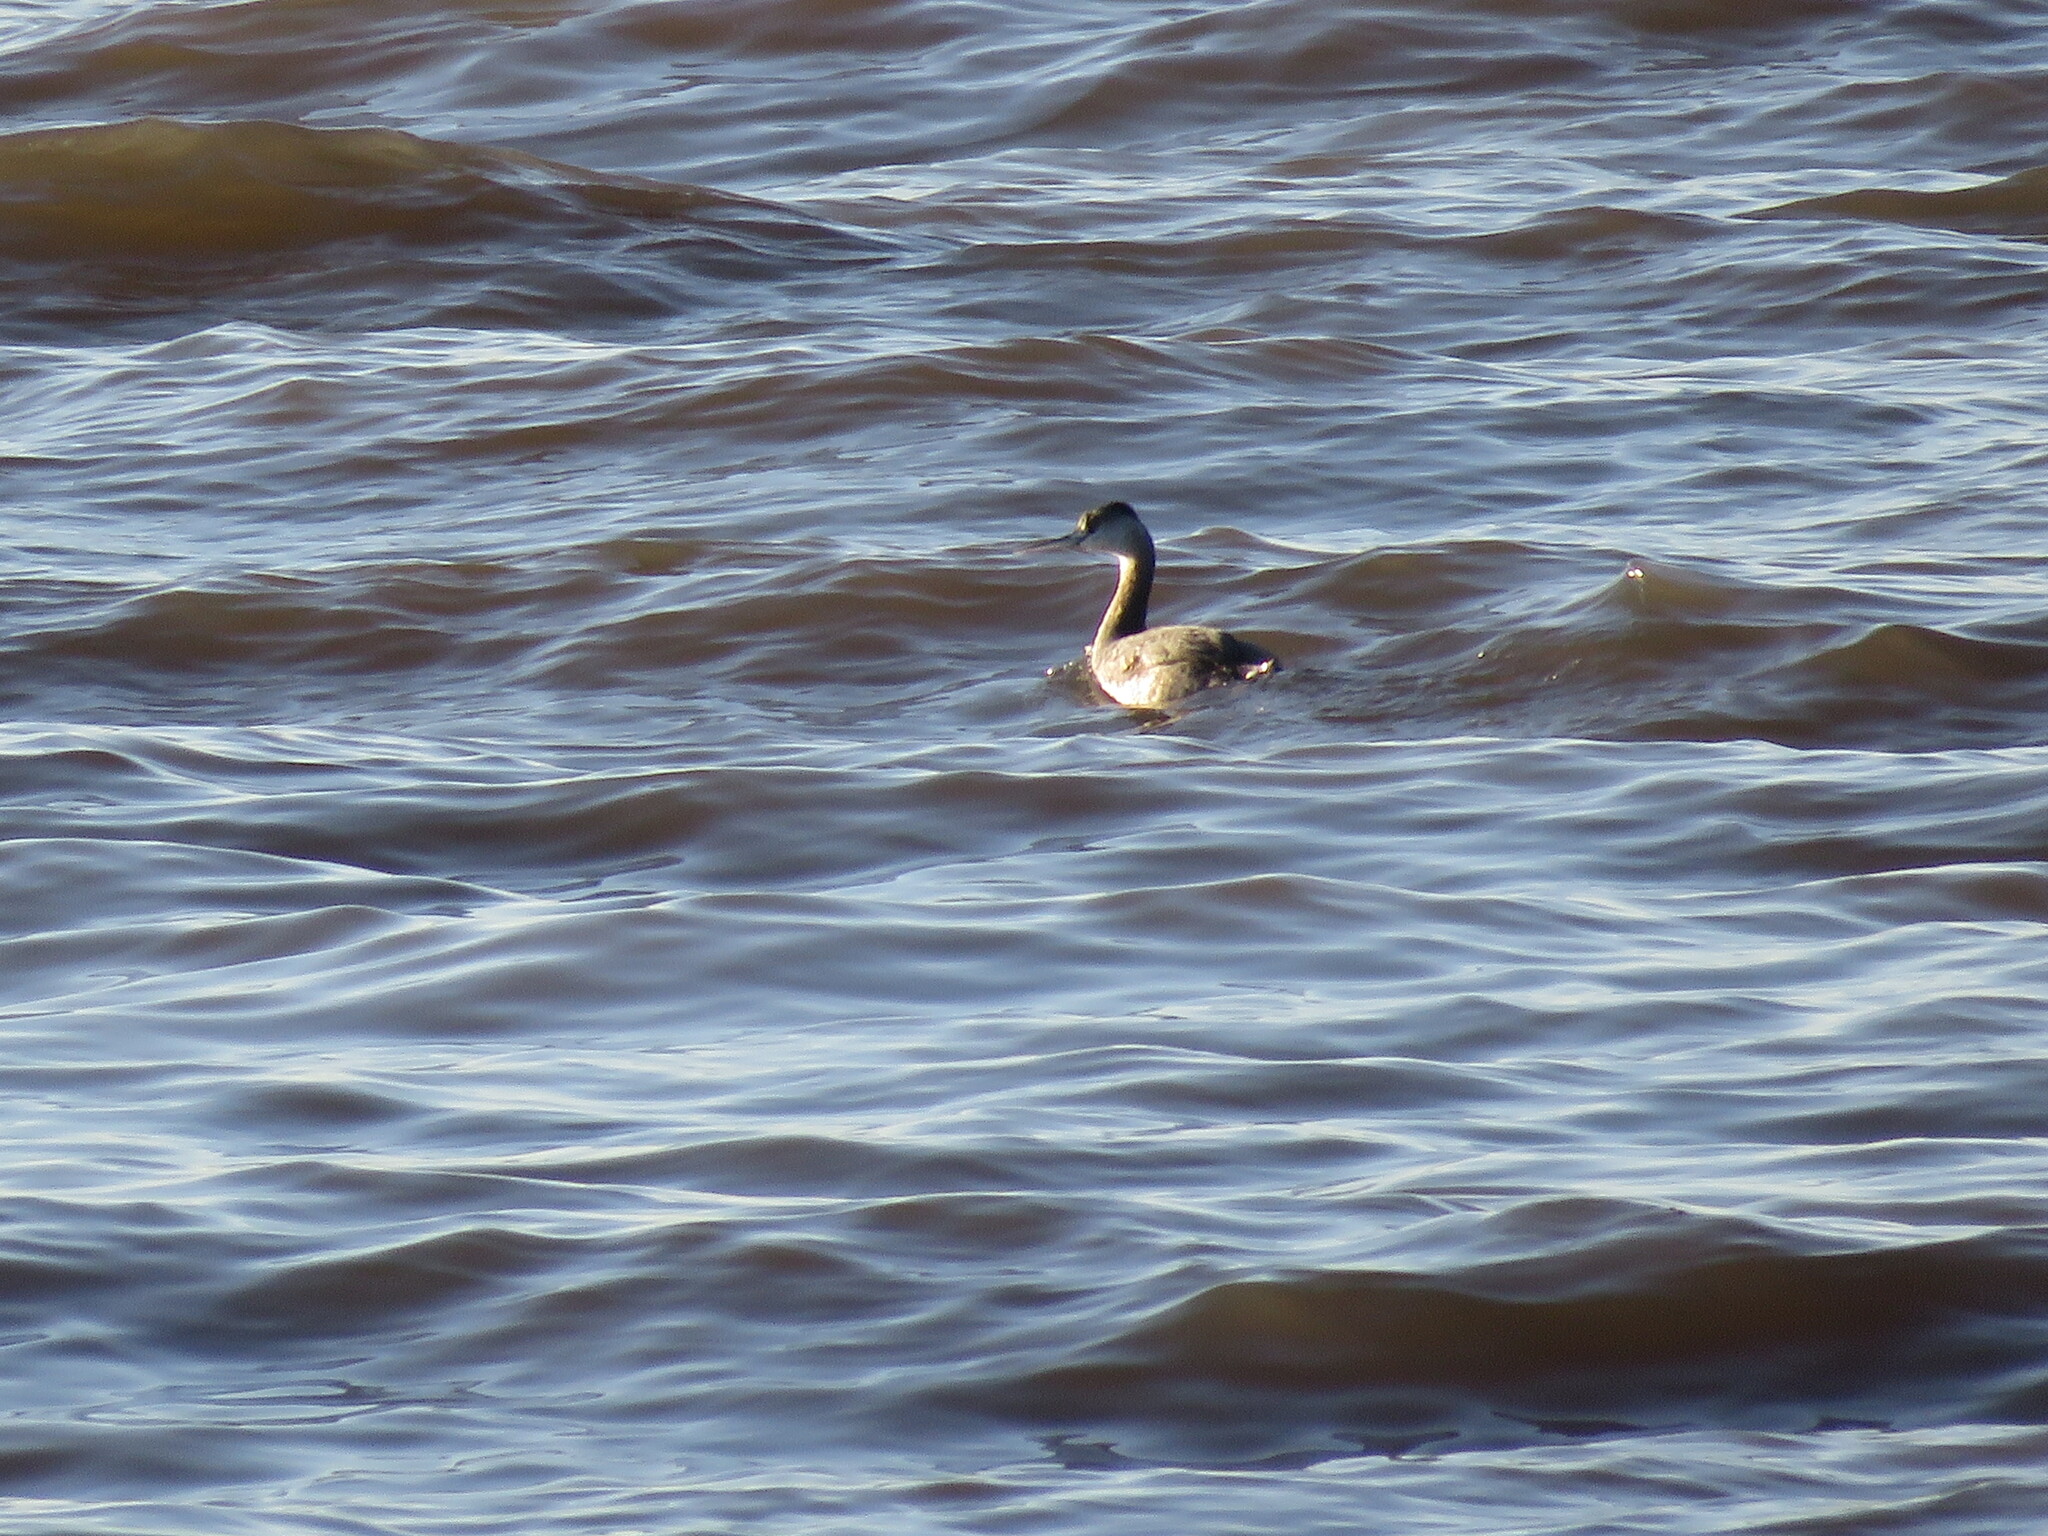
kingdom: Animalia
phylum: Chordata
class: Aves
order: Podicipediformes
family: Podicipedidae
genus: Podiceps
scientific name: Podiceps major
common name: Great grebe
